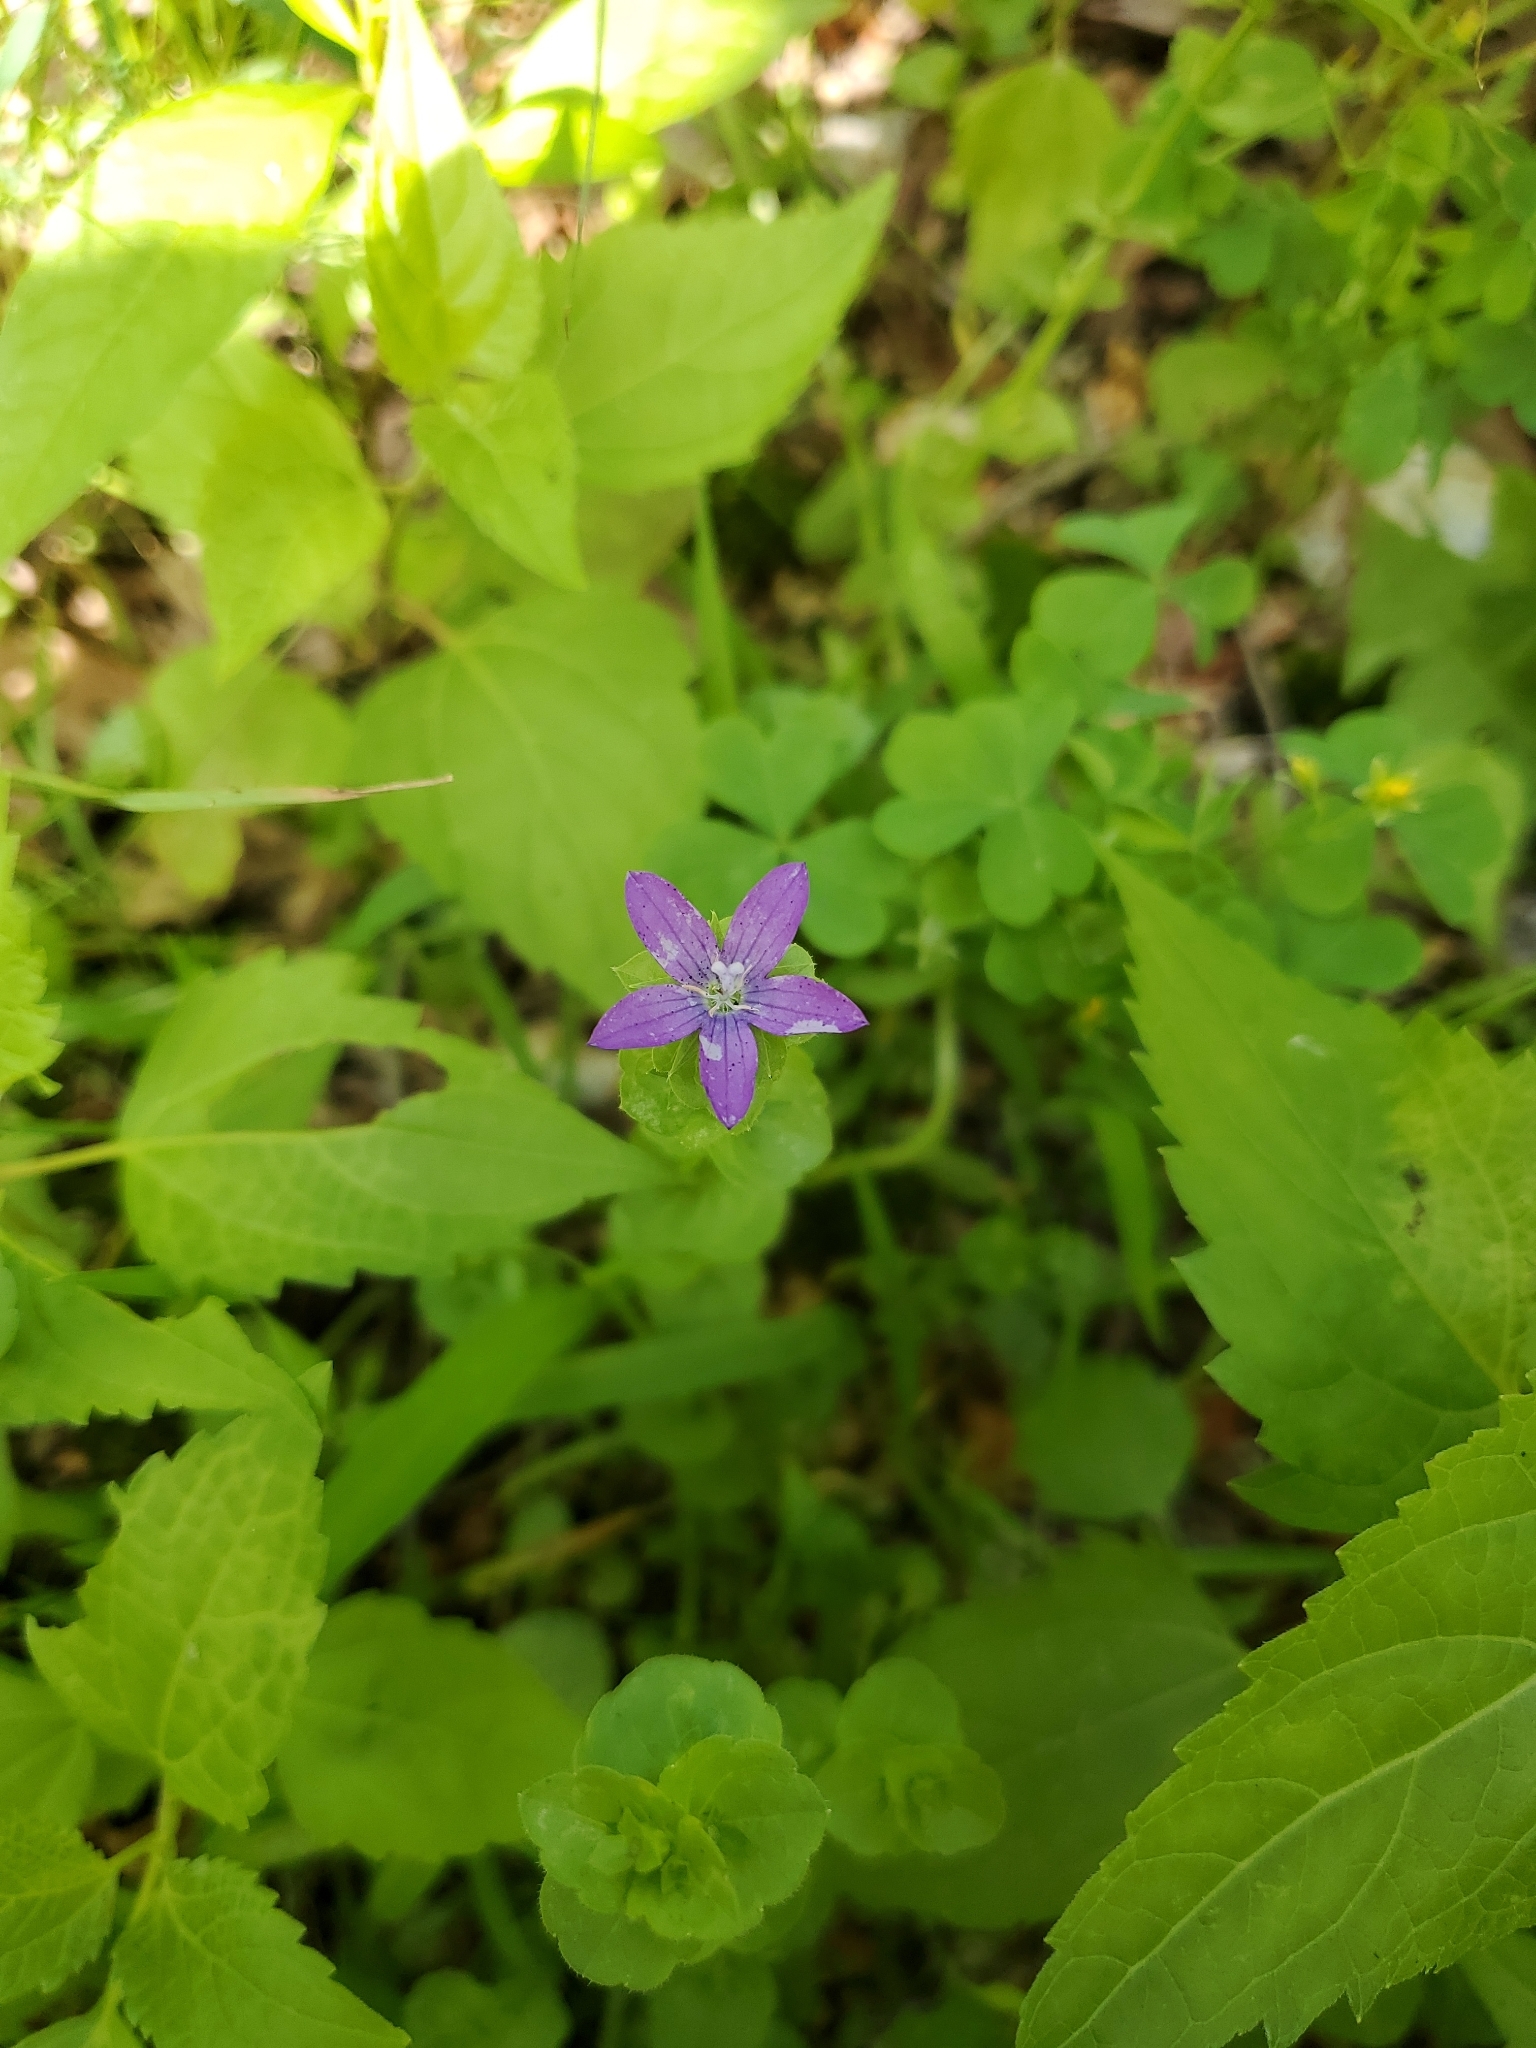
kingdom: Plantae
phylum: Tracheophyta
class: Magnoliopsida
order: Asterales
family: Campanulaceae
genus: Triodanis
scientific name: Triodanis perfoliata
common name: Clasping venus' looking-glass
